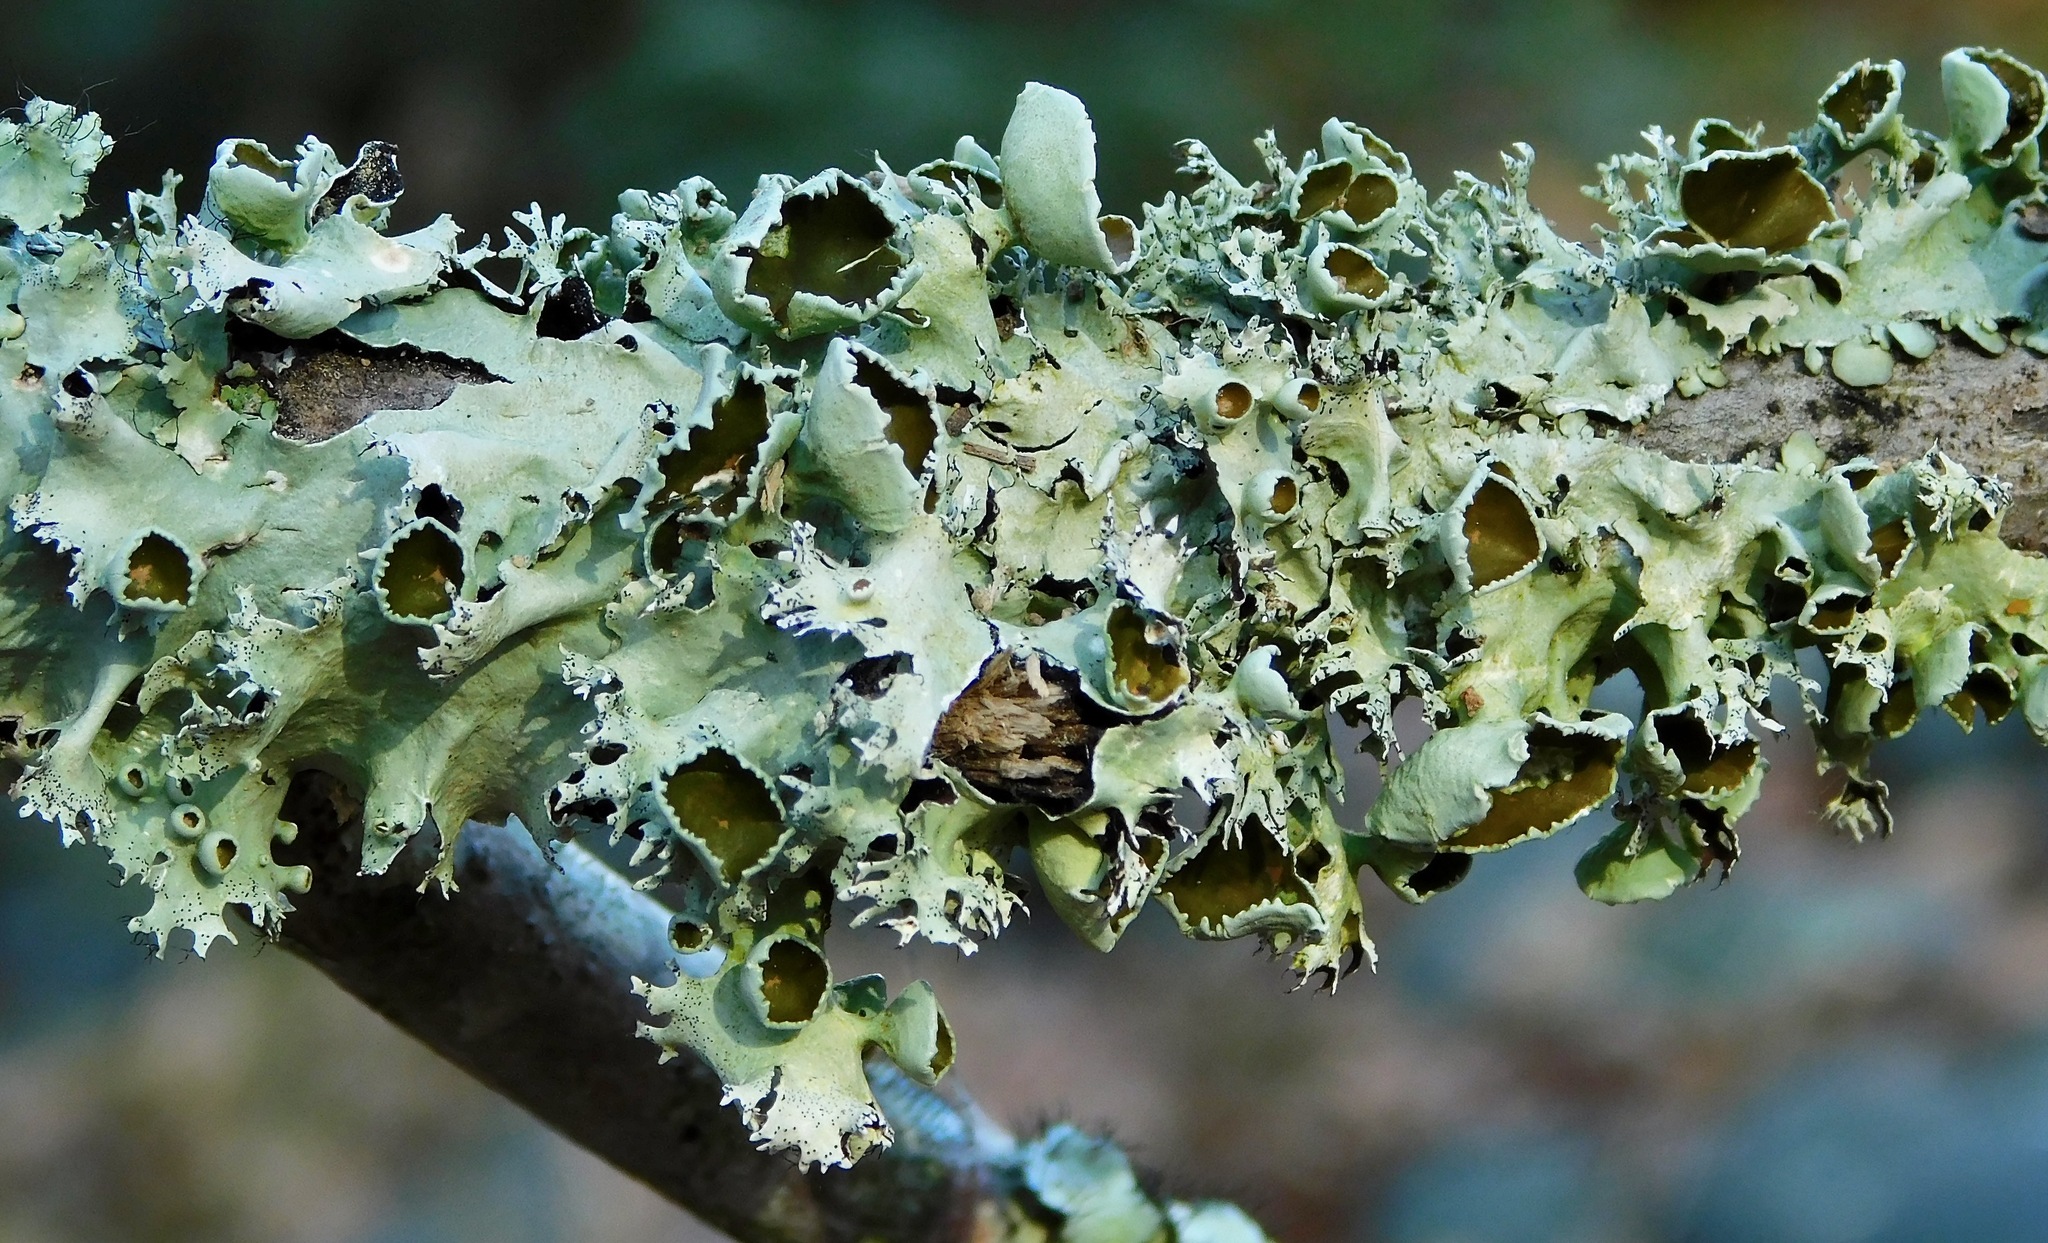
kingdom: Fungi
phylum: Ascomycota
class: Lecanoromycetes
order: Lecanorales
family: Parmeliaceae
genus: Parmotrema
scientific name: Parmotrema cetratum
